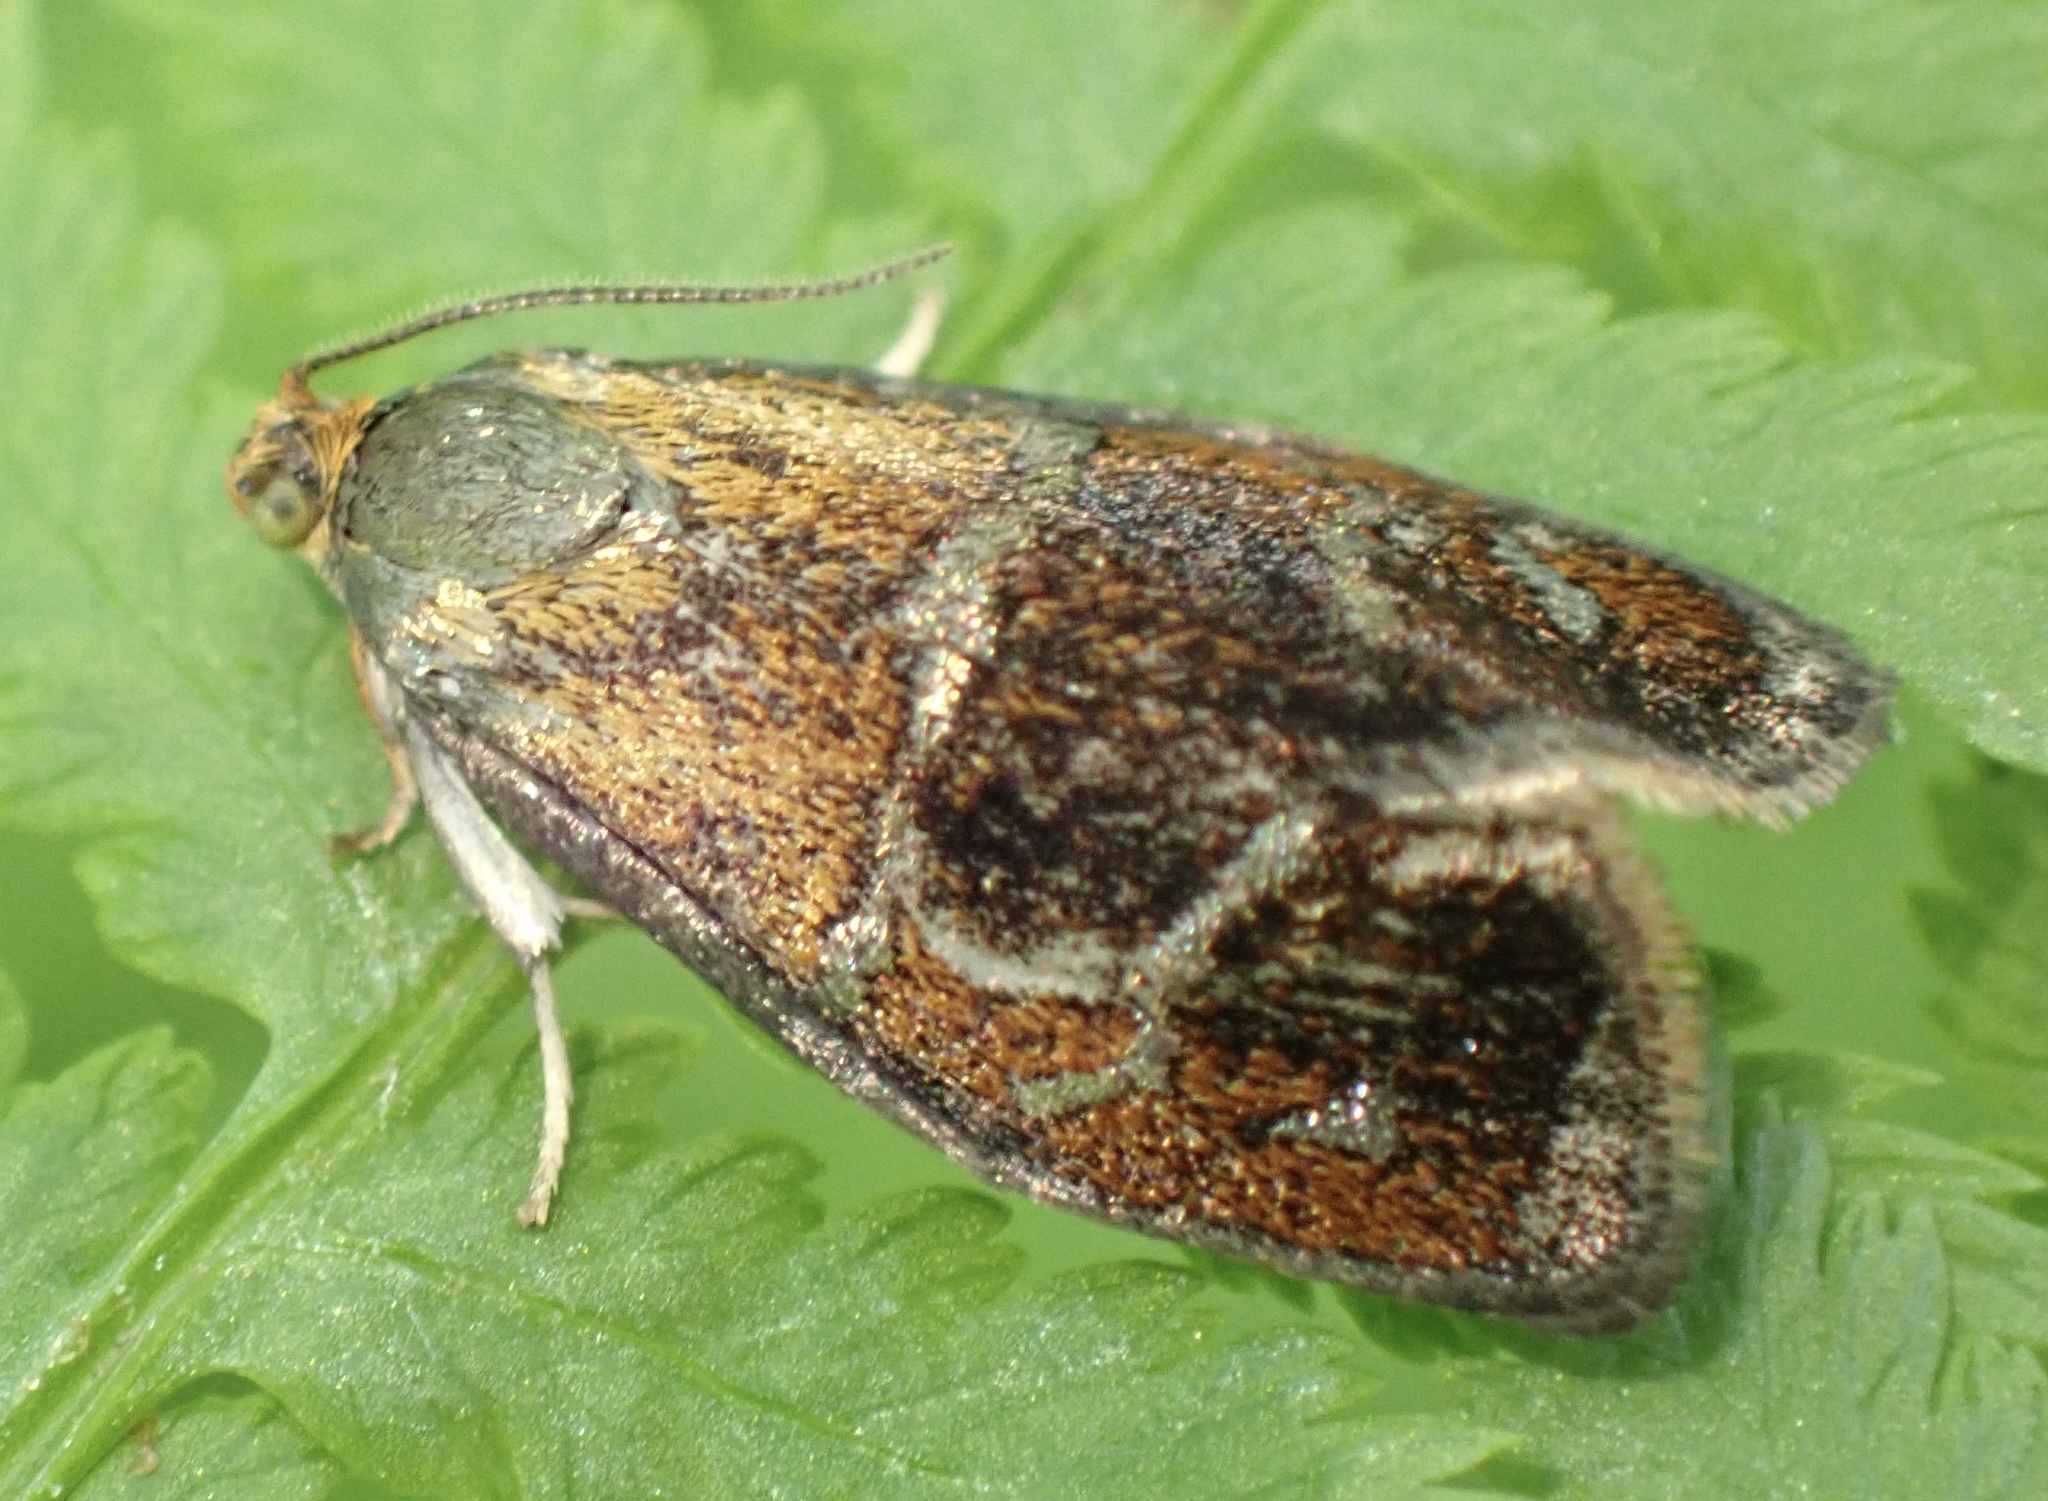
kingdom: Animalia
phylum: Arthropoda
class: Insecta
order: Lepidoptera
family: Tortricidae
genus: Ptycholoma
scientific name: Ptycholoma lecheana
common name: Leches twist moth
